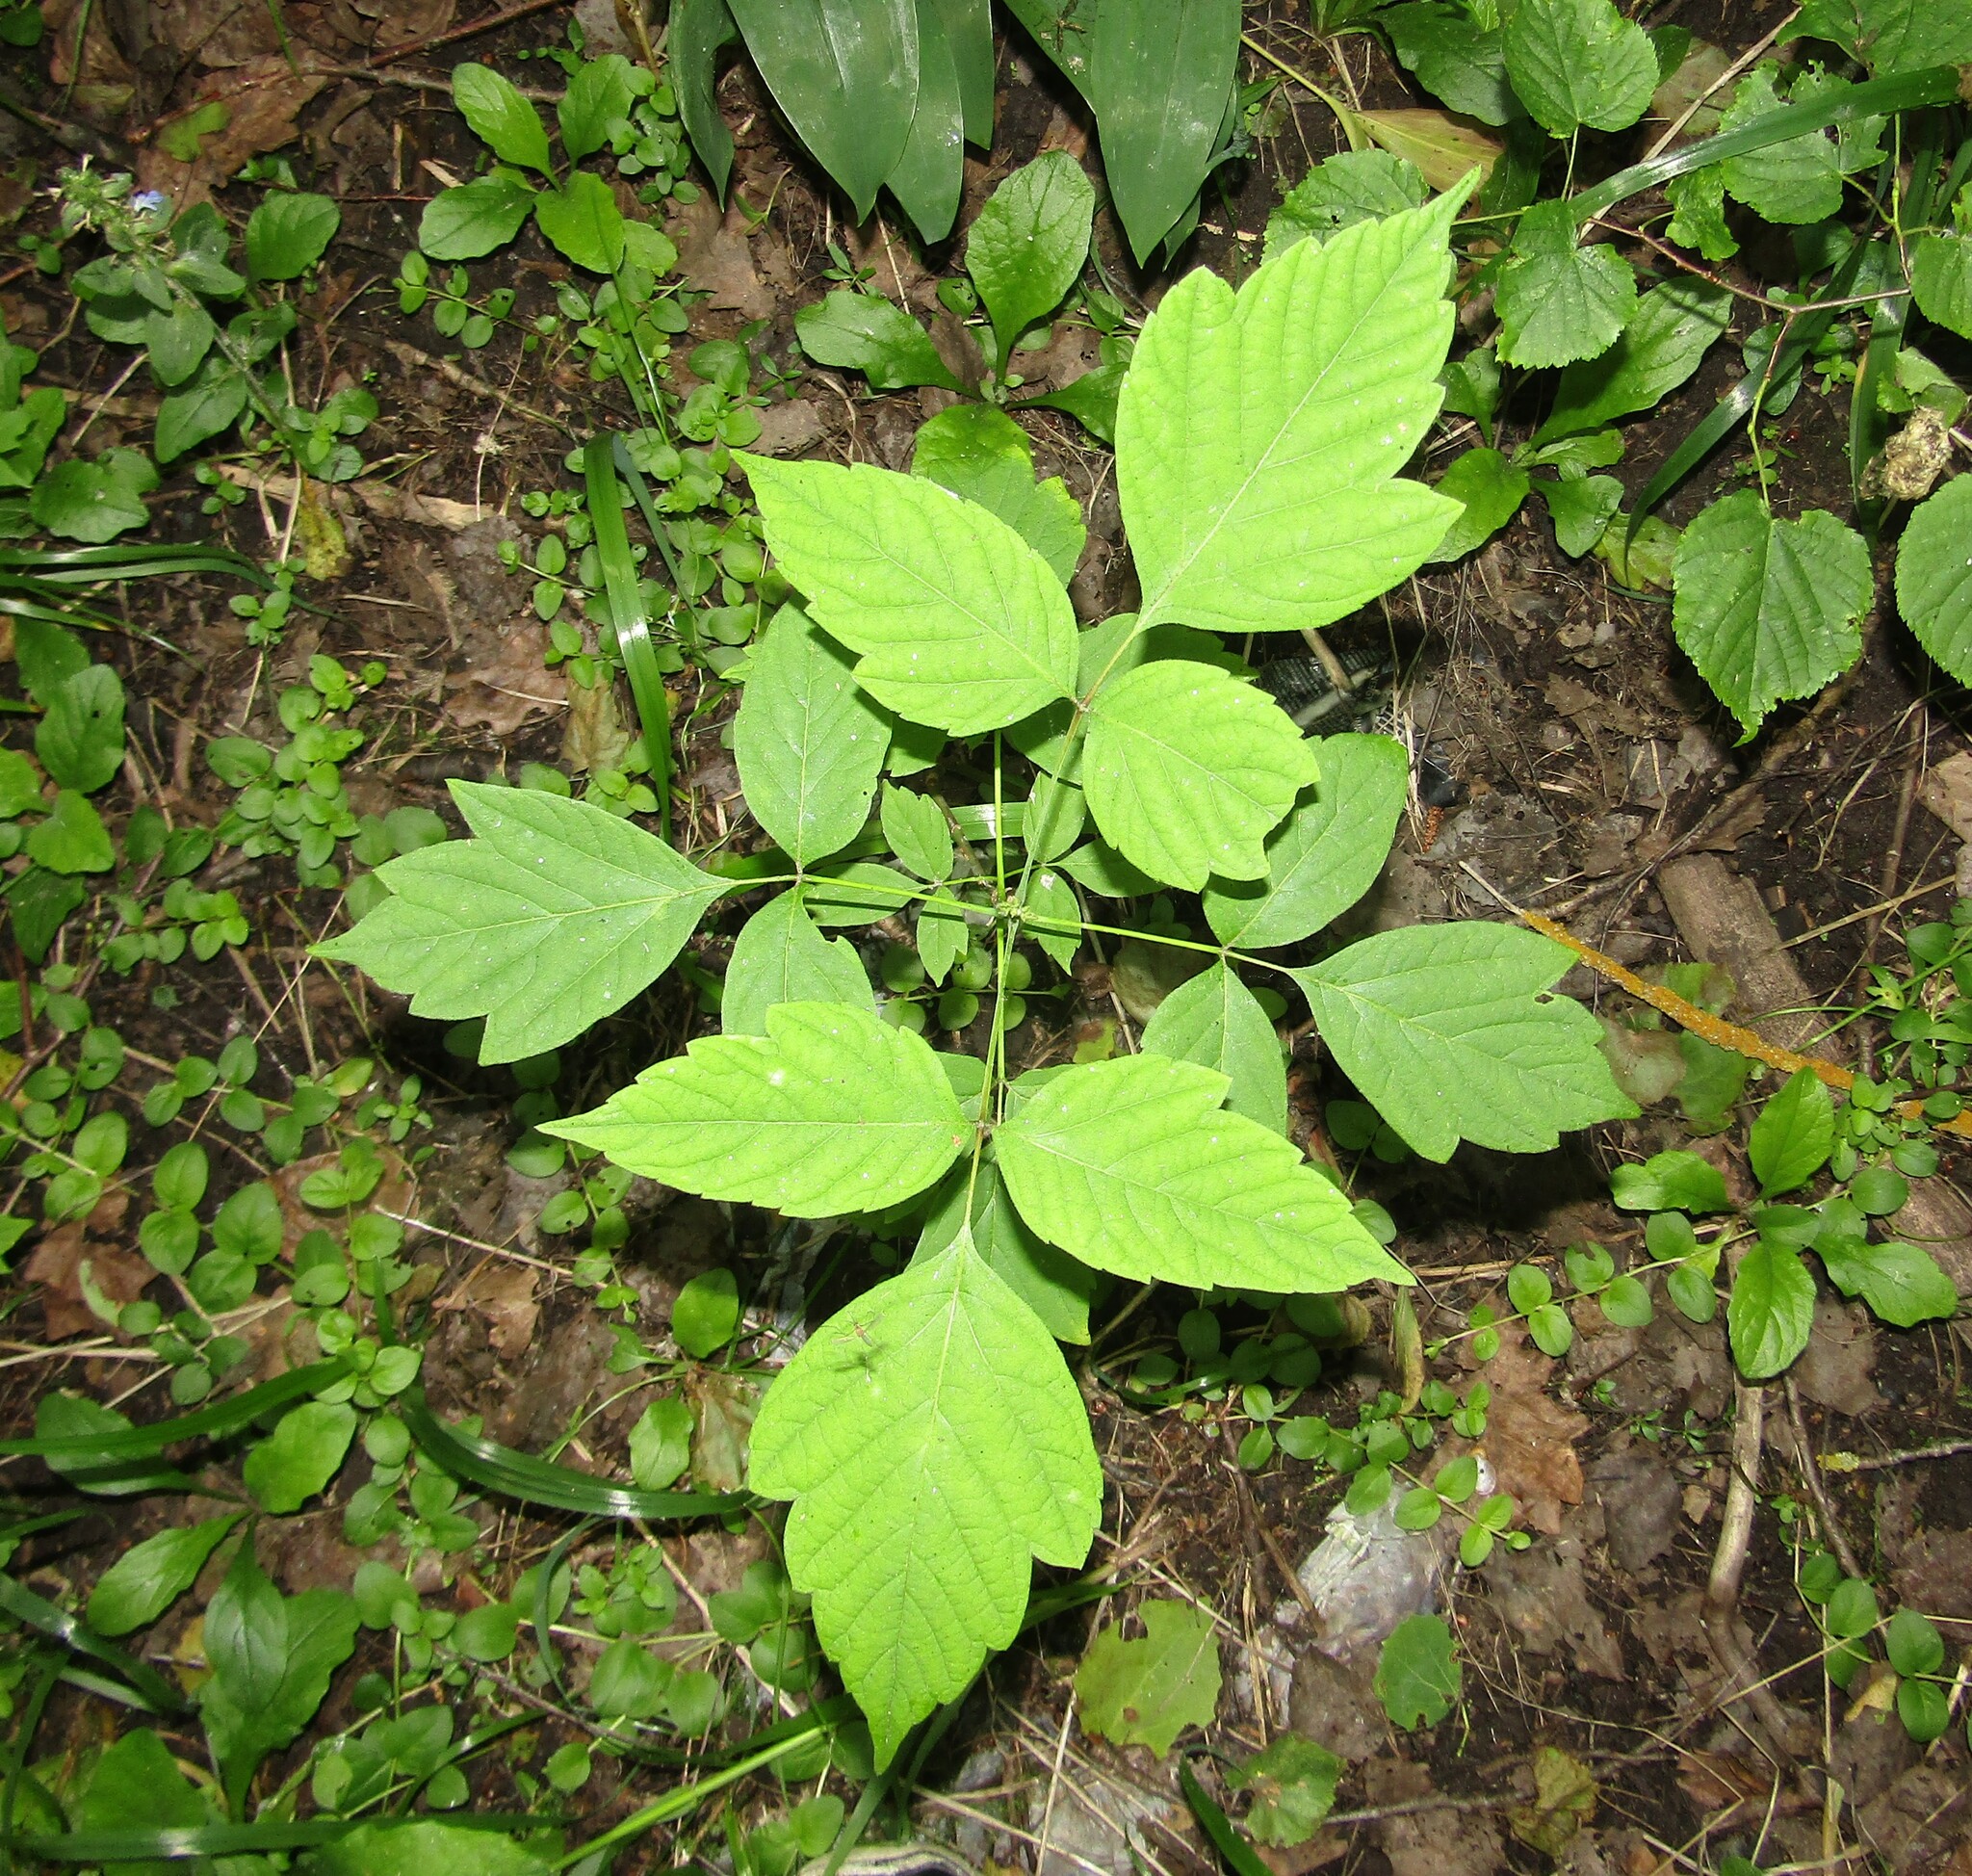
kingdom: Plantae
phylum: Tracheophyta
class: Magnoliopsida
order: Sapindales
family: Sapindaceae
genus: Acer
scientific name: Acer negundo
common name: Ashleaf maple
